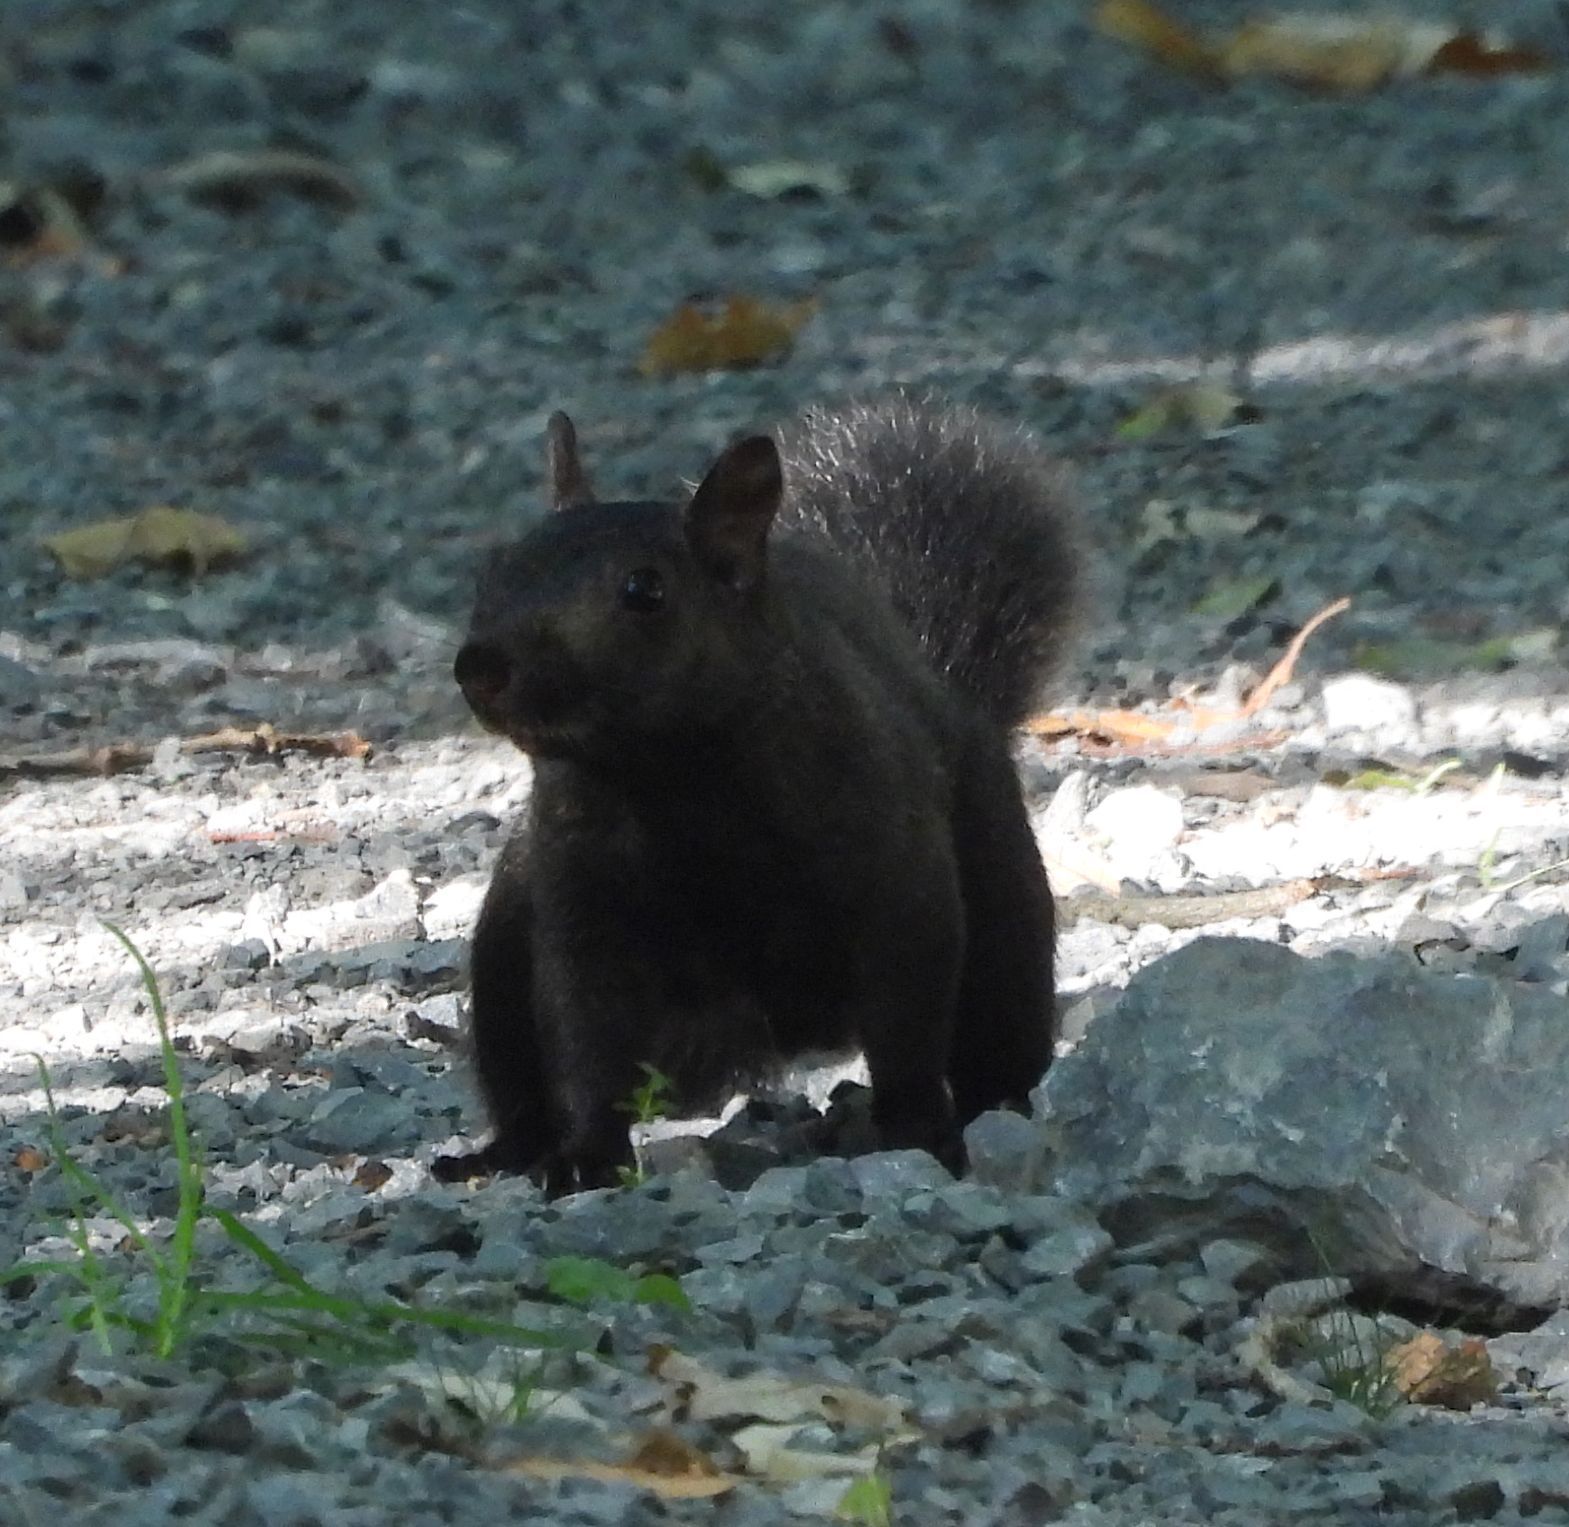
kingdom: Animalia
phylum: Chordata
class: Mammalia
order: Rodentia
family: Sciuridae
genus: Sciurus
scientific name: Sciurus carolinensis
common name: Eastern gray squirrel
